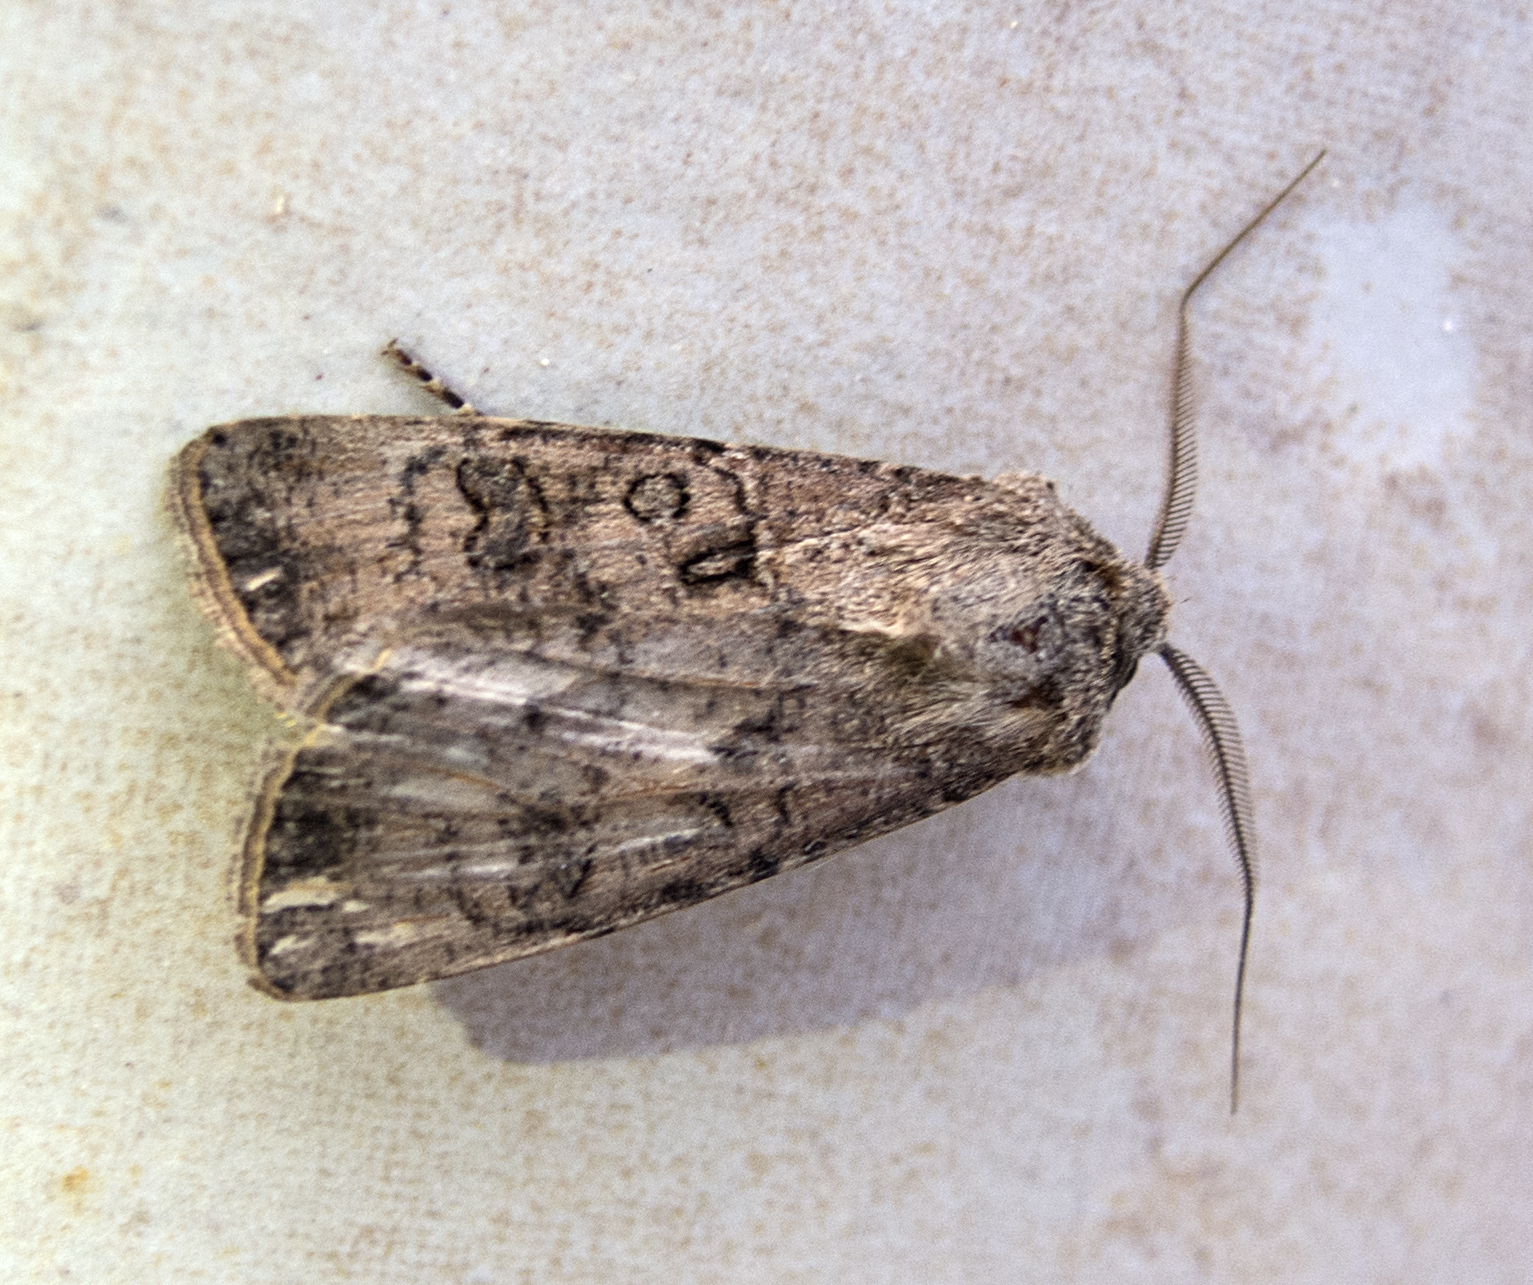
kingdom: Animalia
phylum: Arthropoda
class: Insecta
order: Lepidoptera
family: Noctuidae
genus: Agrotis
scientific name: Agrotis segetum
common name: Turnip moth
